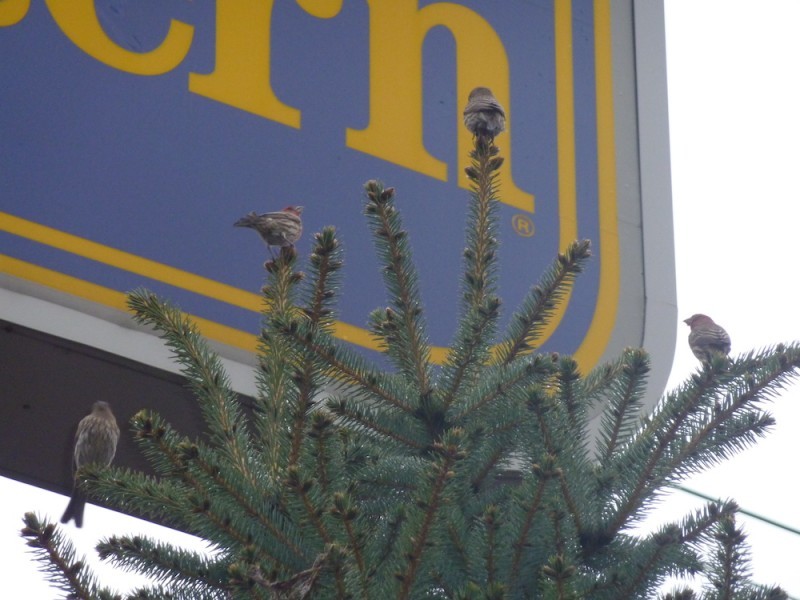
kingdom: Animalia
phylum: Chordata
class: Aves
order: Passeriformes
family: Fringillidae
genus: Haemorhous
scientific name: Haemorhous mexicanus
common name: House finch
